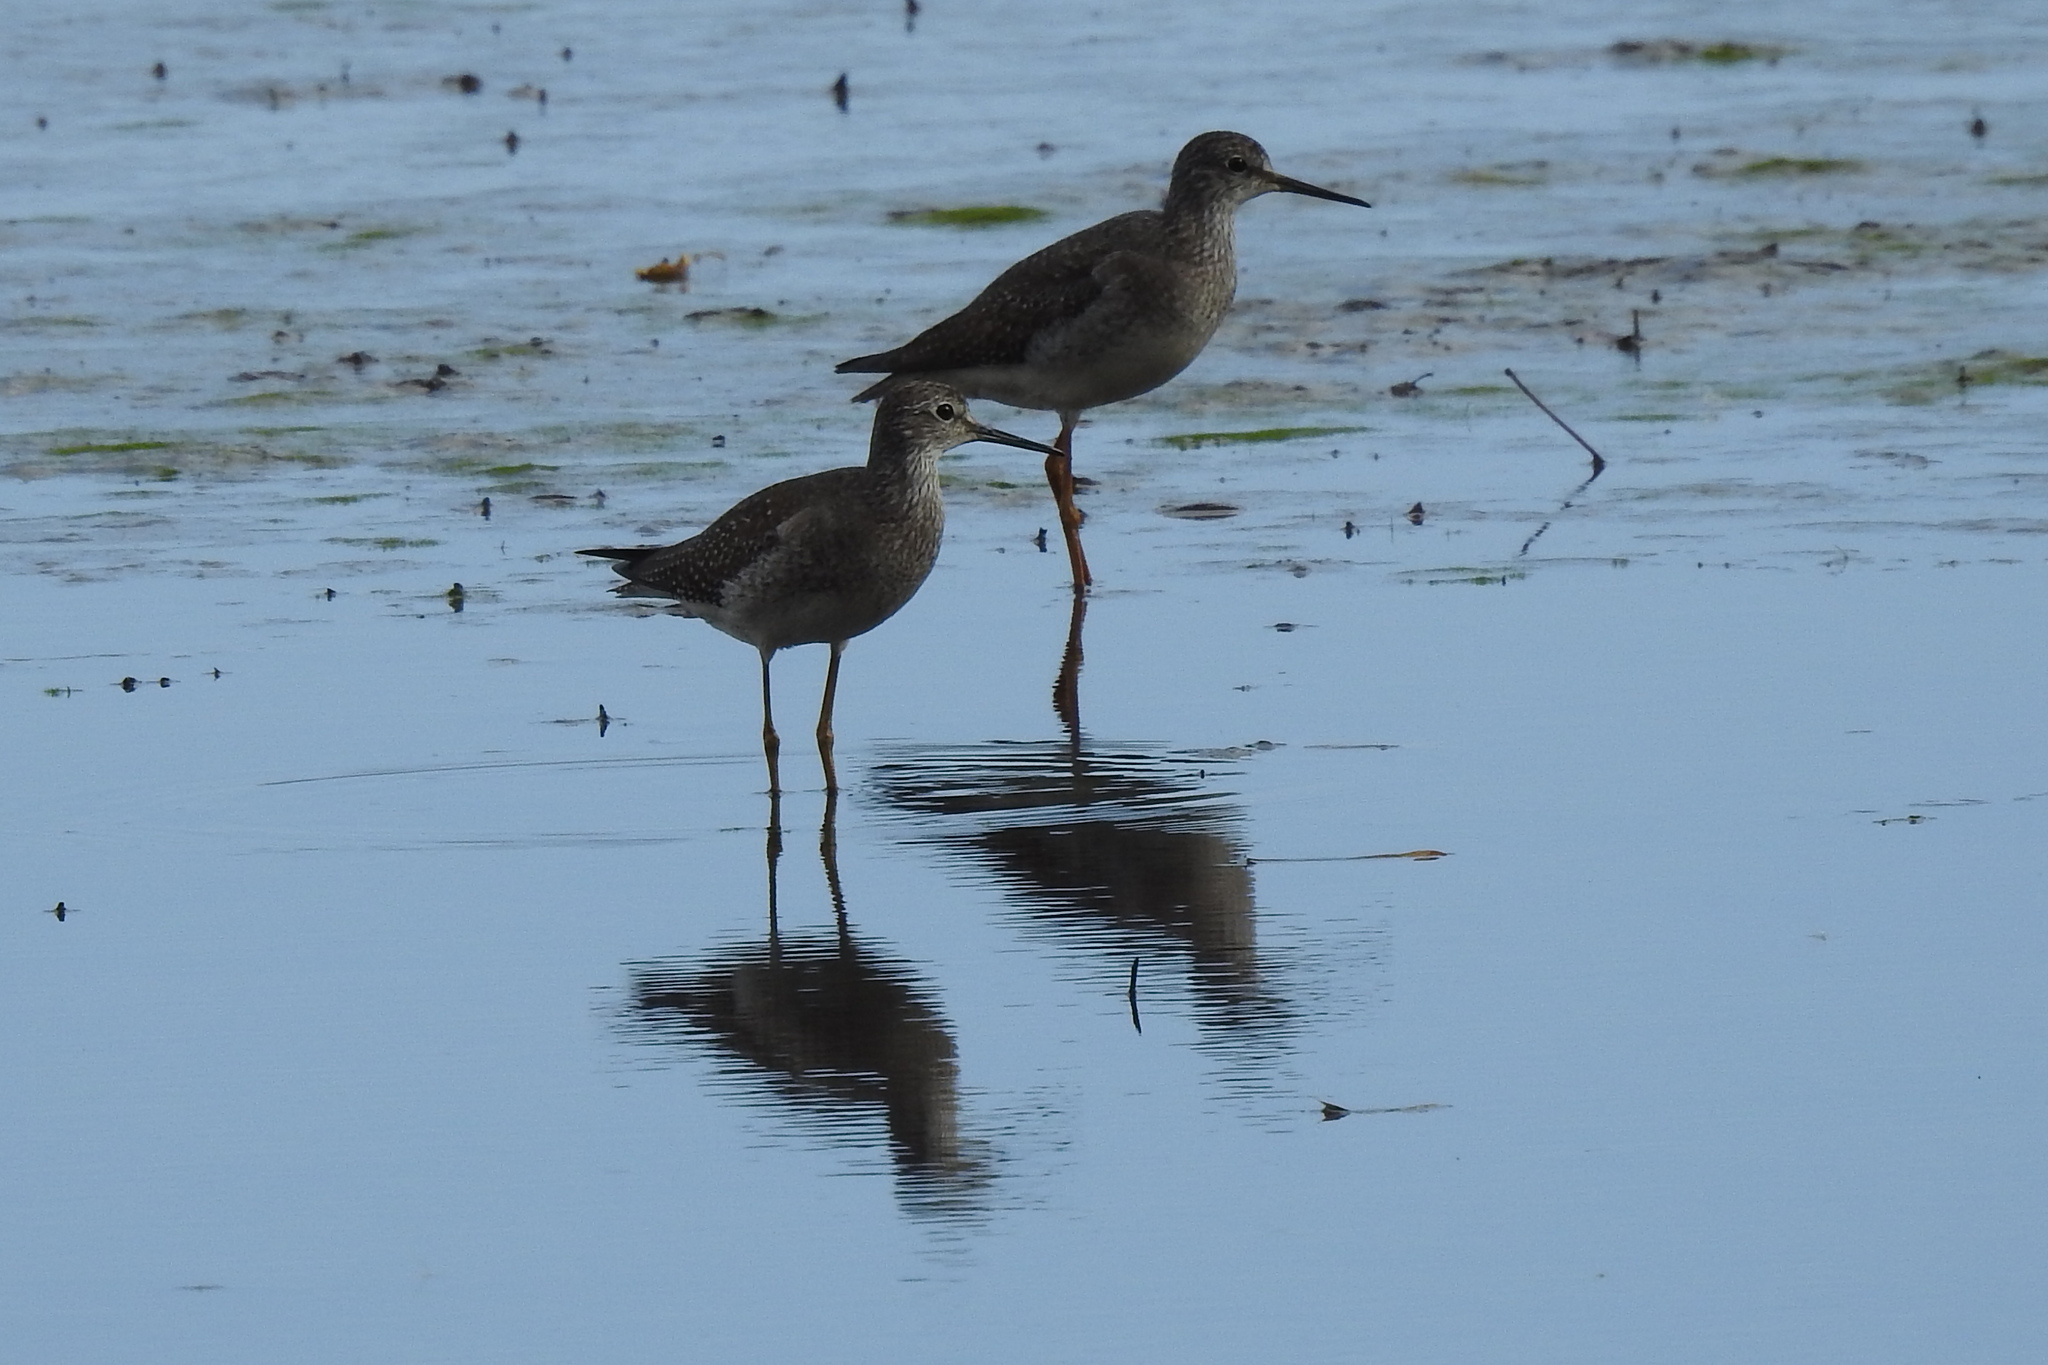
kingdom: Animalia
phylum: Chordata
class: Aves
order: Charadriiformes
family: Scolopacidae
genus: Tringa
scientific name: Tringa flavipes
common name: Lesser yellowlegs
